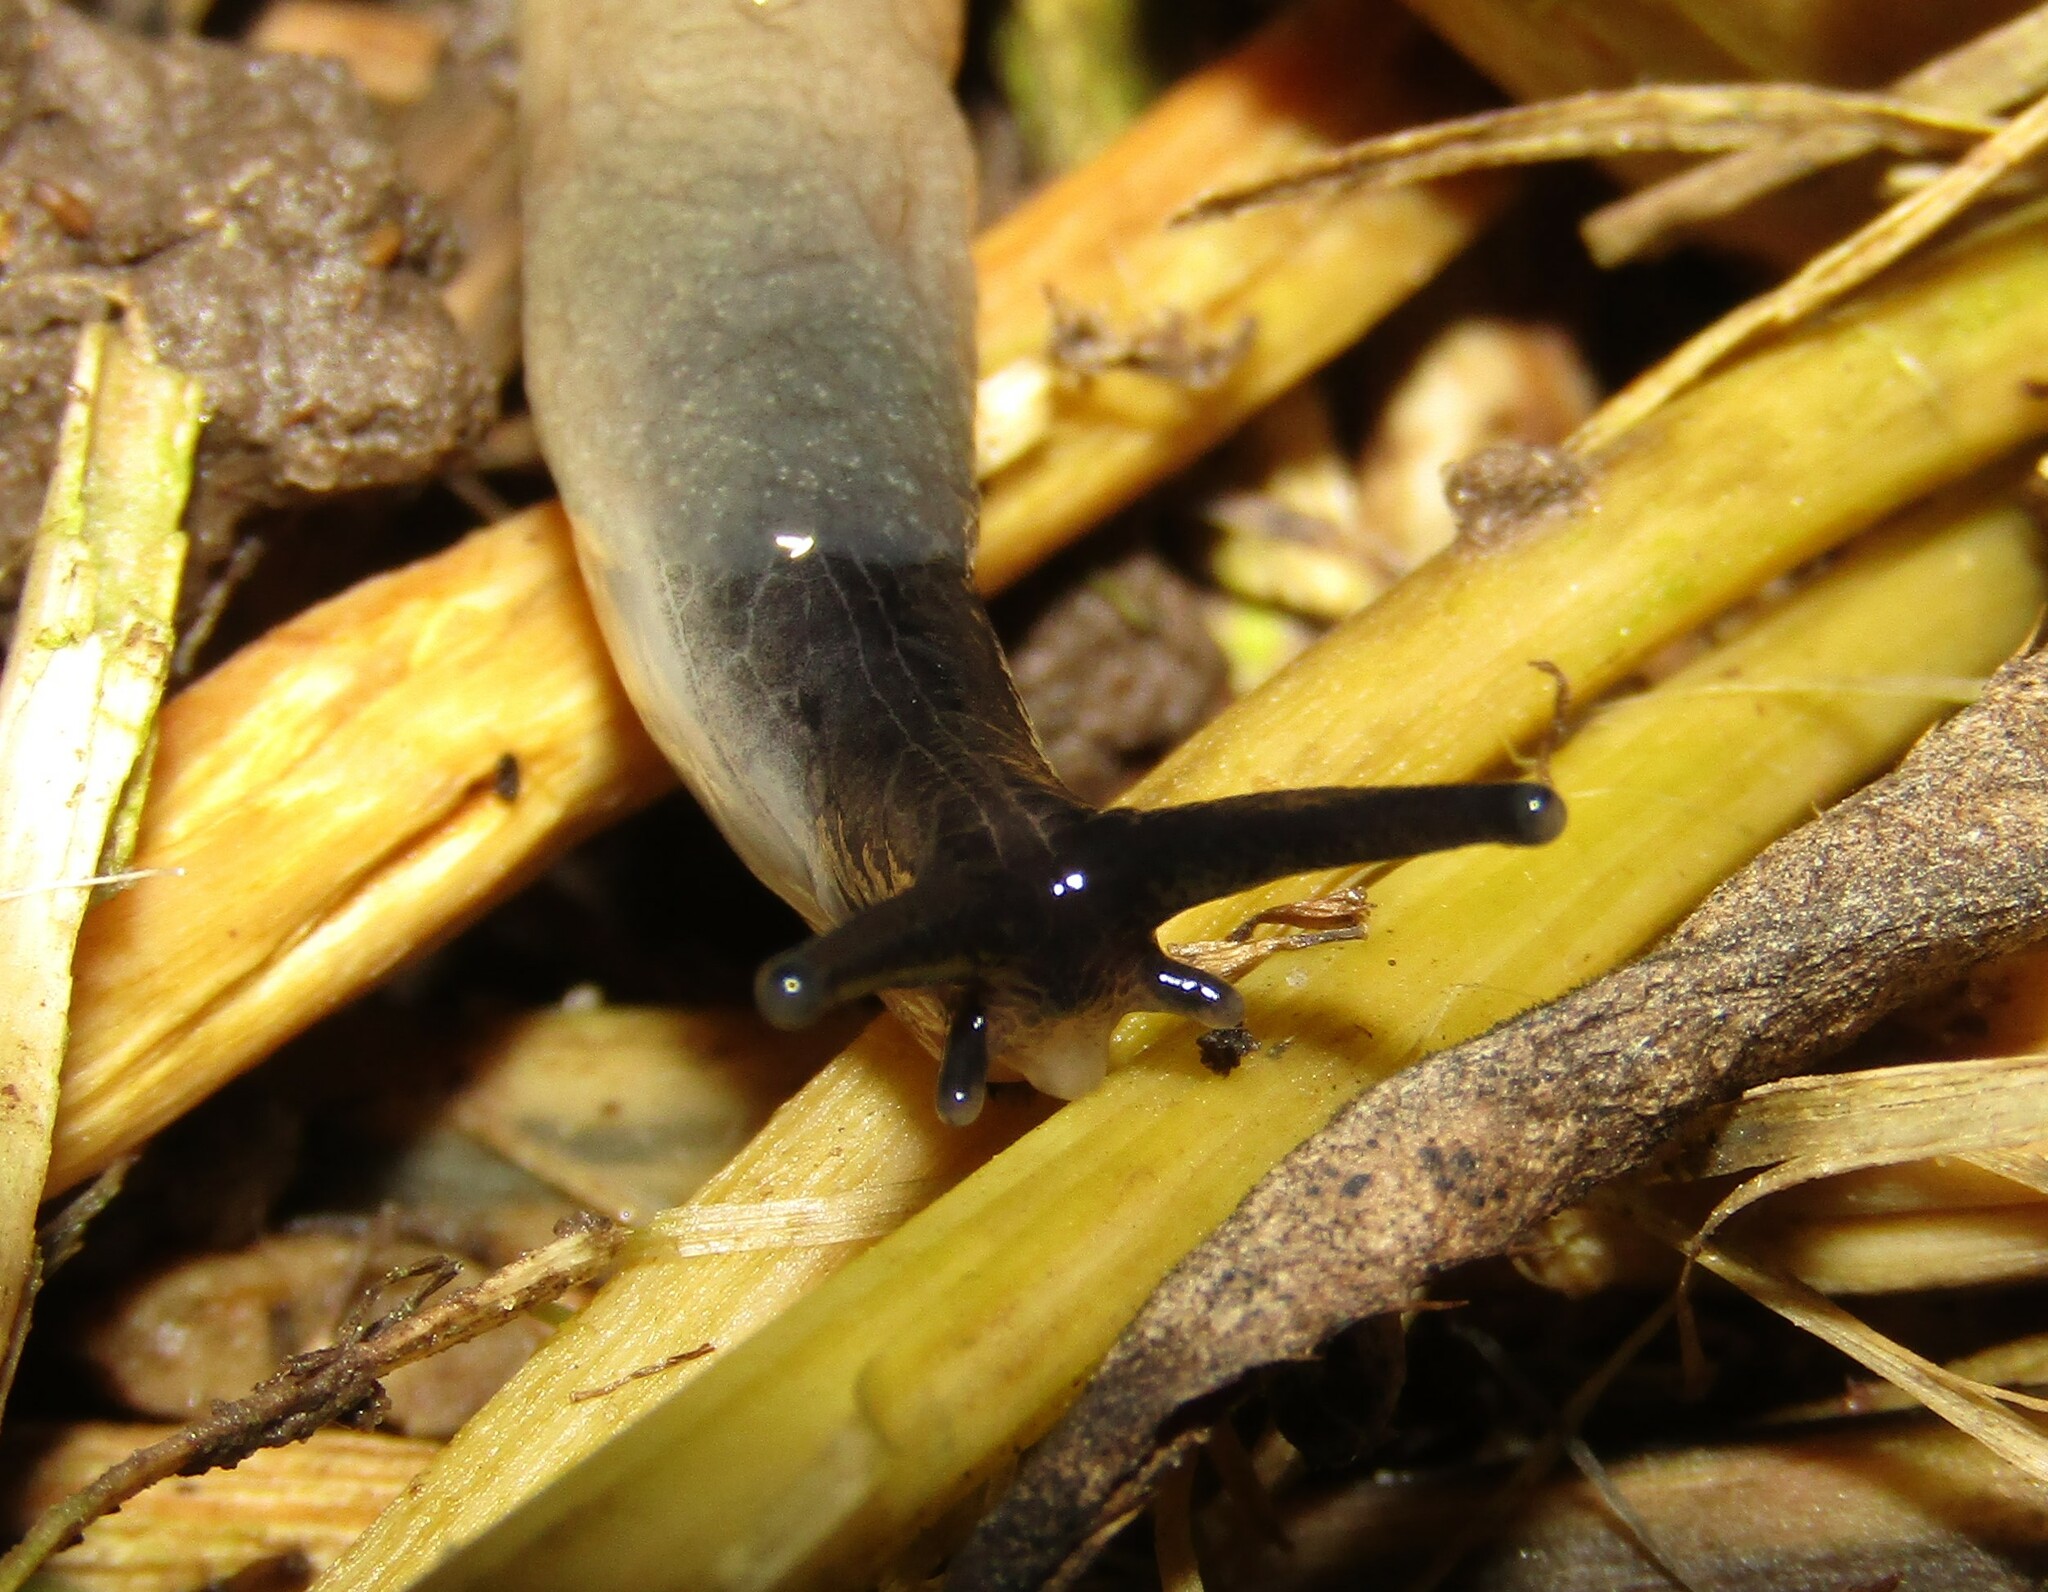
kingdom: Animalia
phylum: Mollusca
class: Gastropoda
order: Stylommatophora
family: Agriolimacidae
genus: Krynickillus
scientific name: Krynickillus melanocephalus
